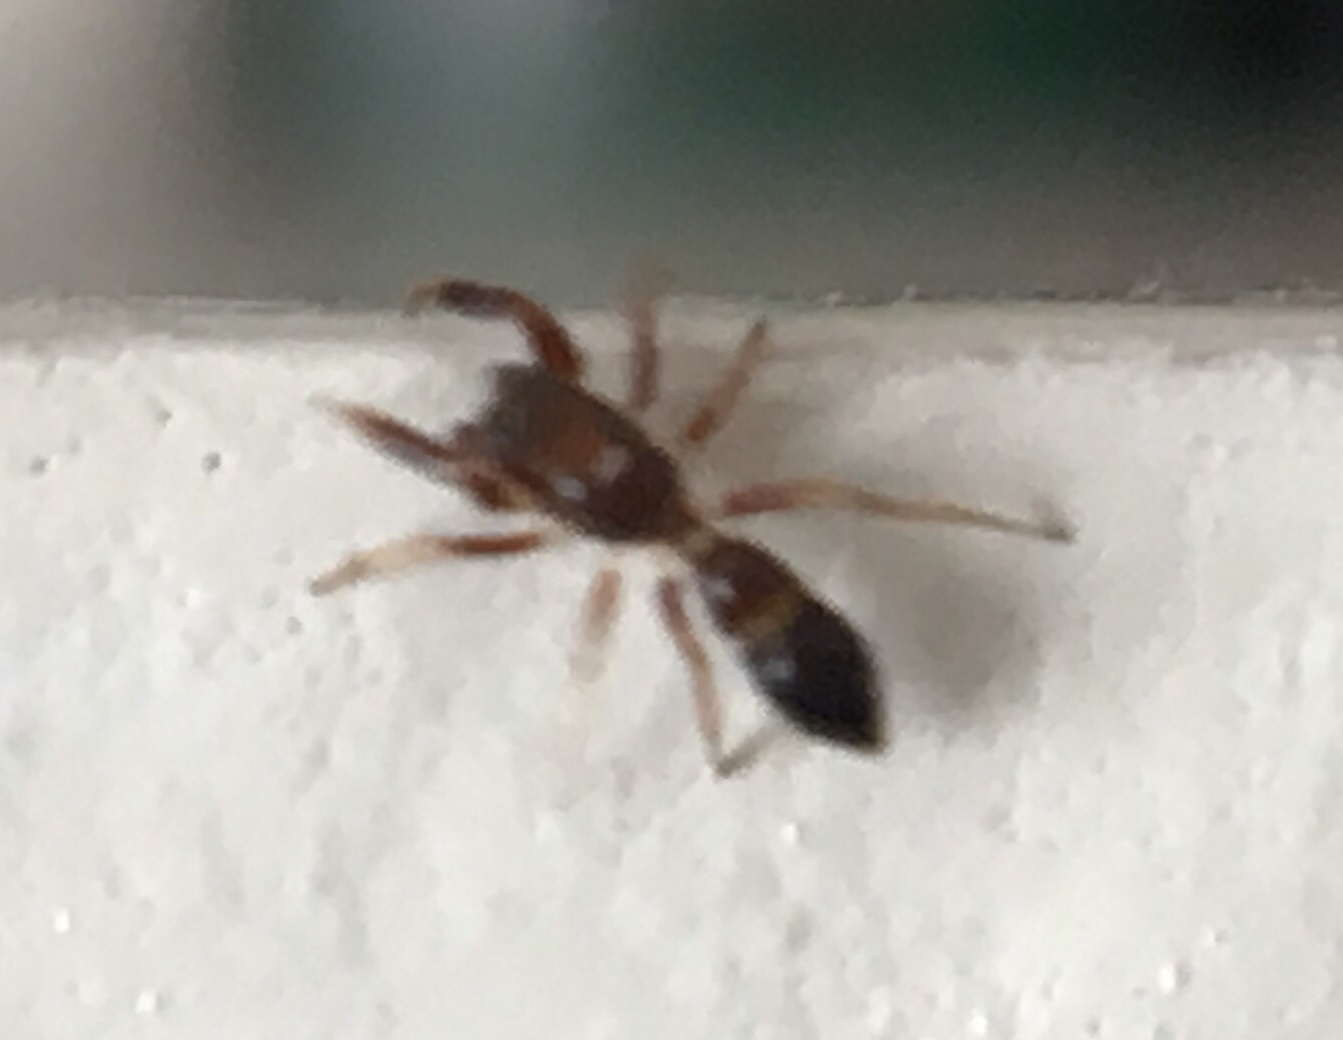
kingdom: Animalia
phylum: Arthropoda
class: Arachnida
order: Araneae
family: Salticidae
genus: Synageles
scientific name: Synageles
